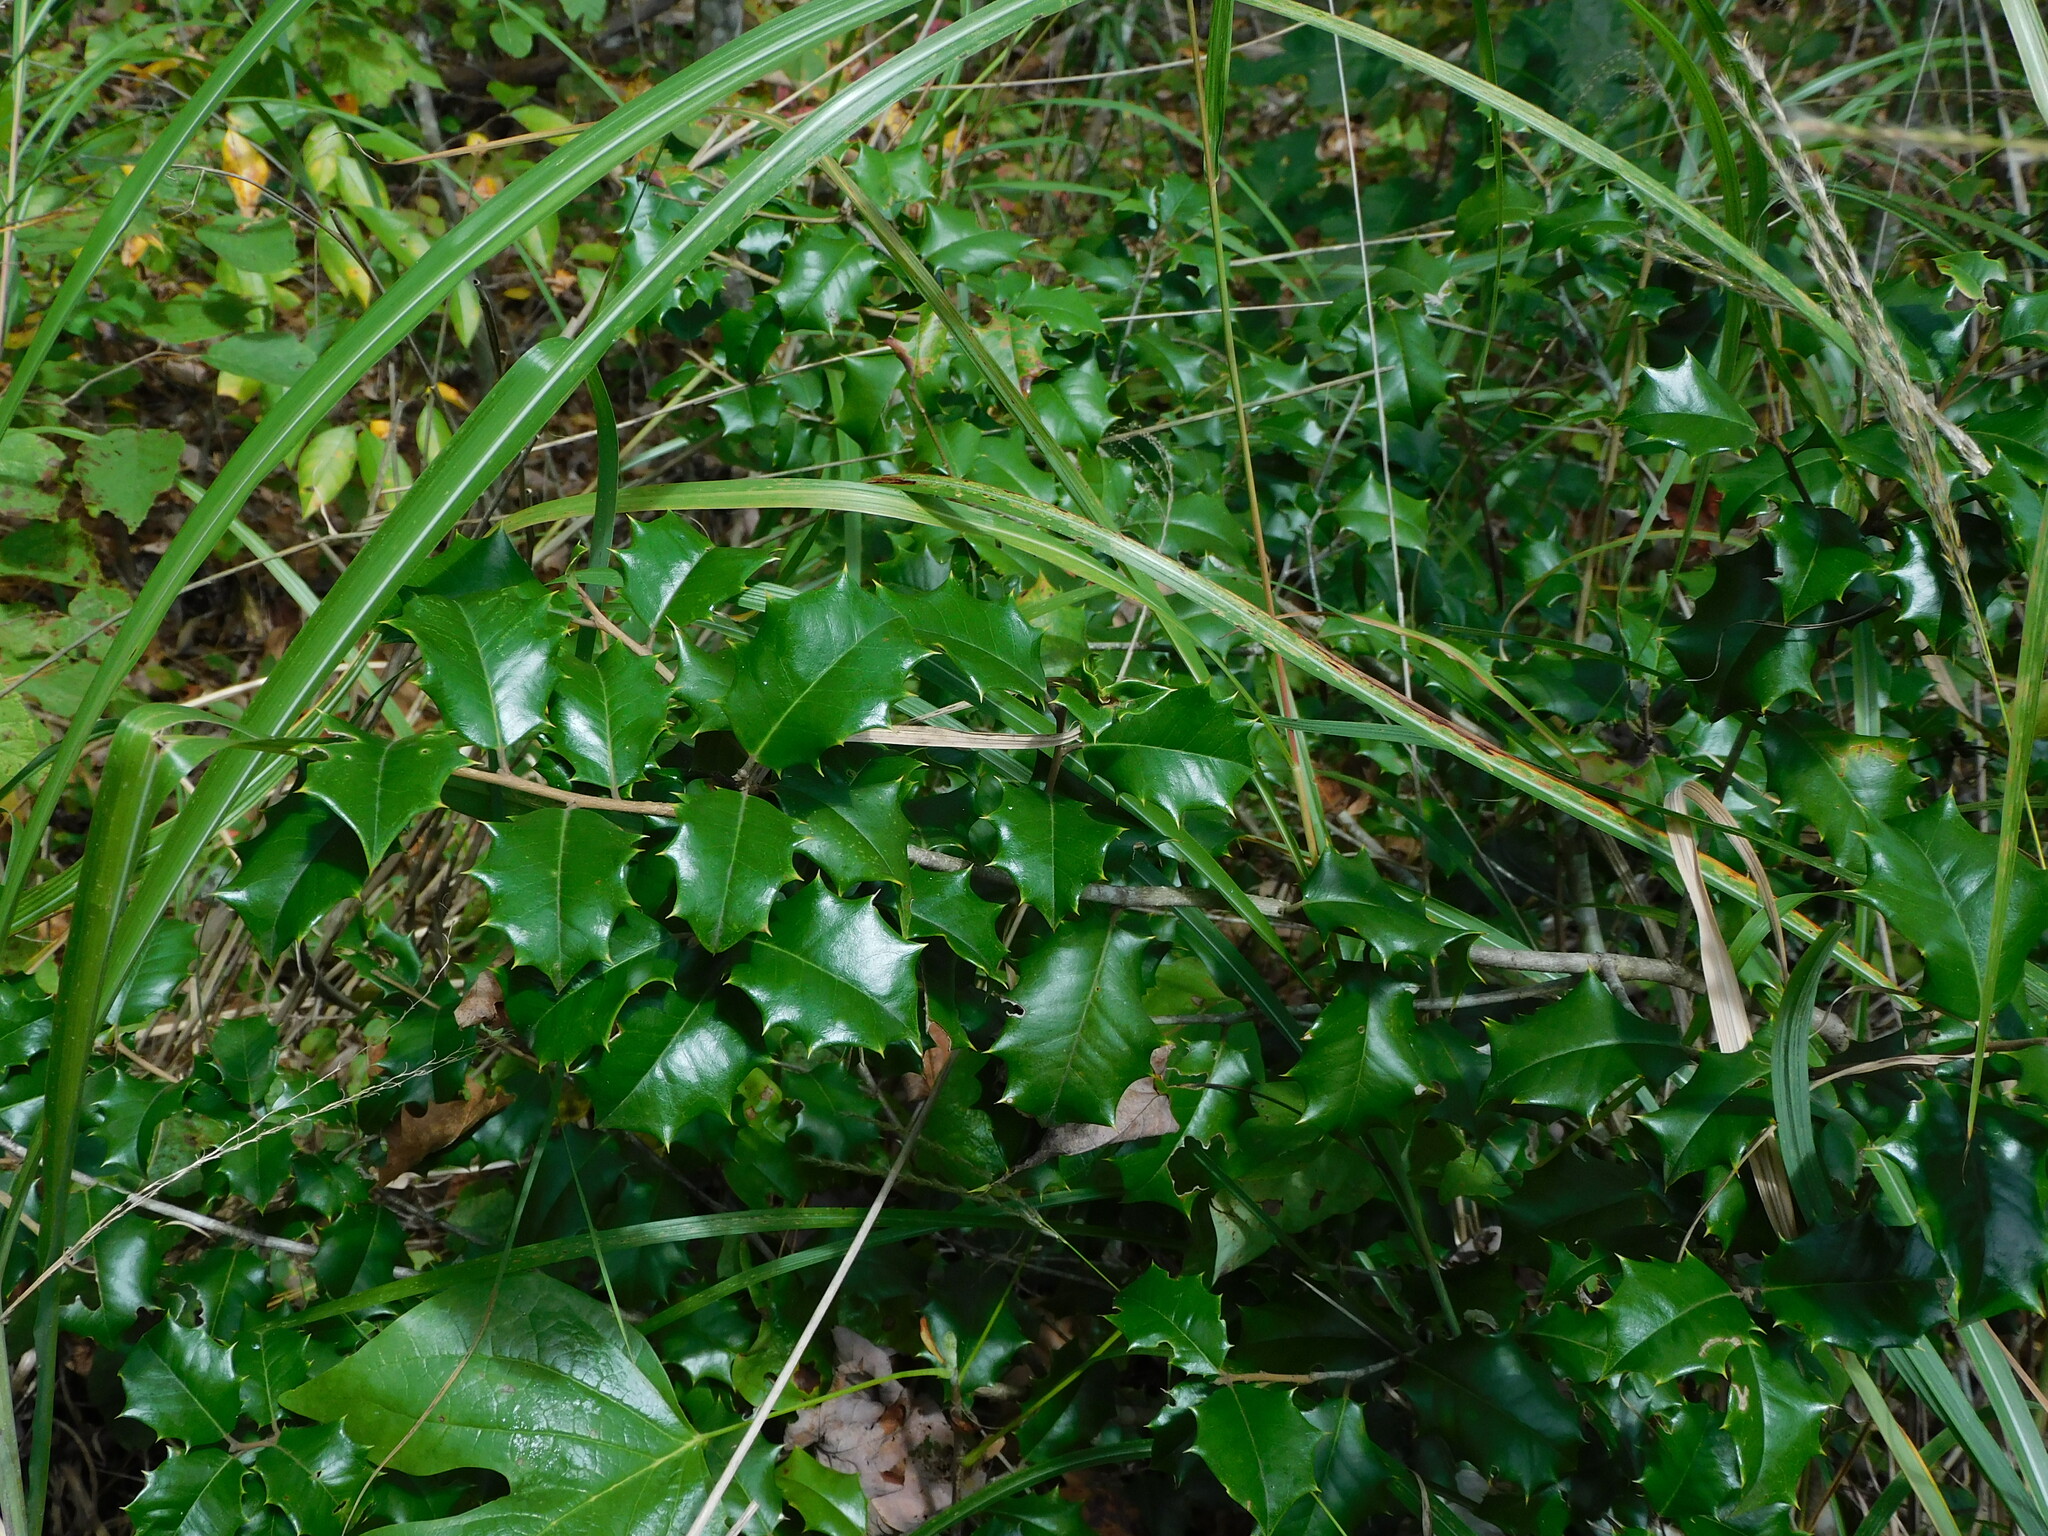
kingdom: Plantae
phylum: Tracheophyta
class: Magnoliopsida
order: Aquifoliales
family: Aquifoliaceae
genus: Ilex
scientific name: Ilex opaca
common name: American holly
